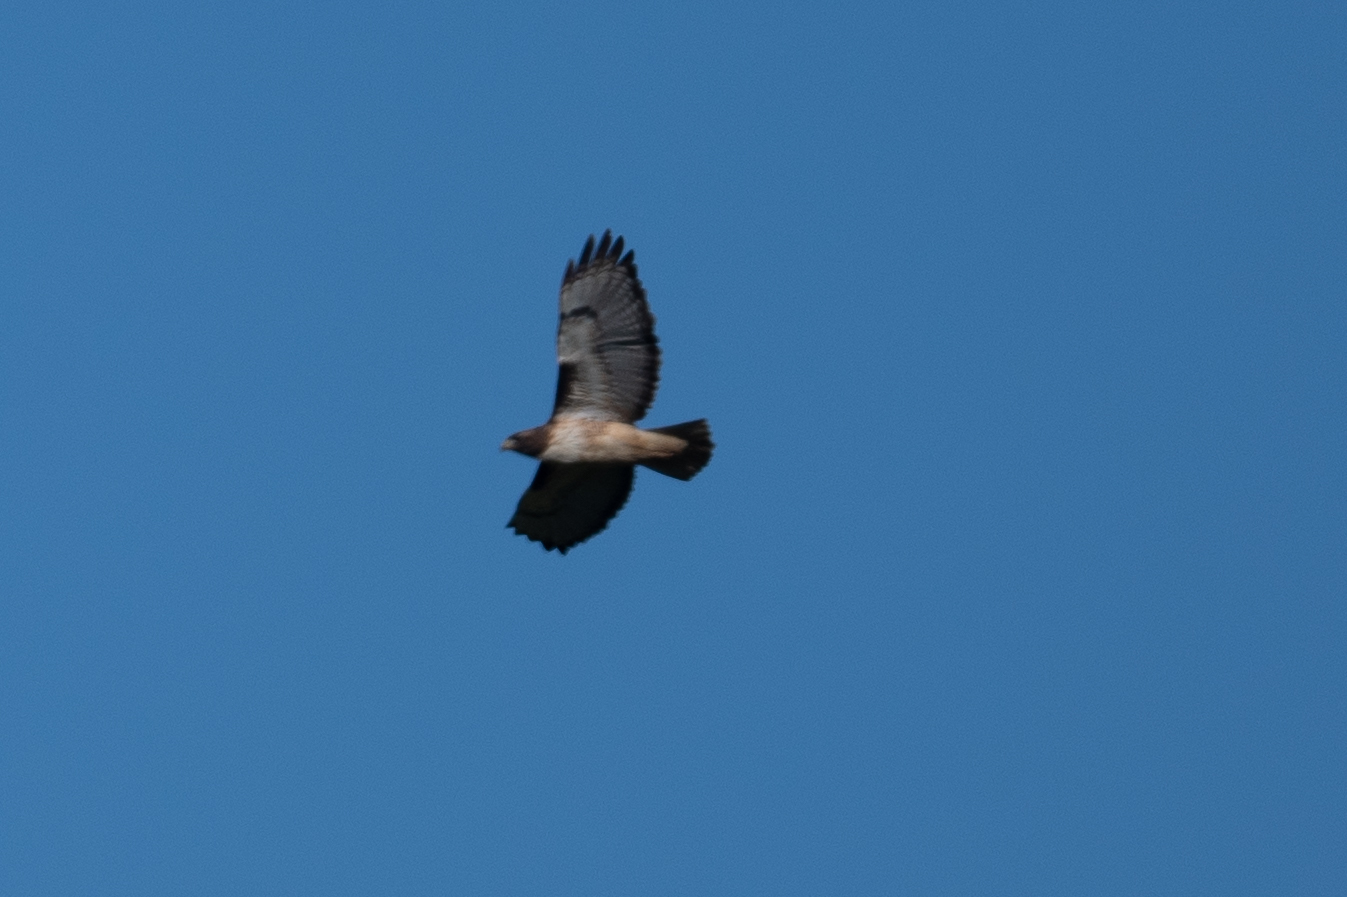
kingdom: Animalia
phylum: Chordata
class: Aves
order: Accipitriformes
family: Accipitridae
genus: Buteo
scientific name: Buteo jamaicensis
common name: Red-tailed hawk
